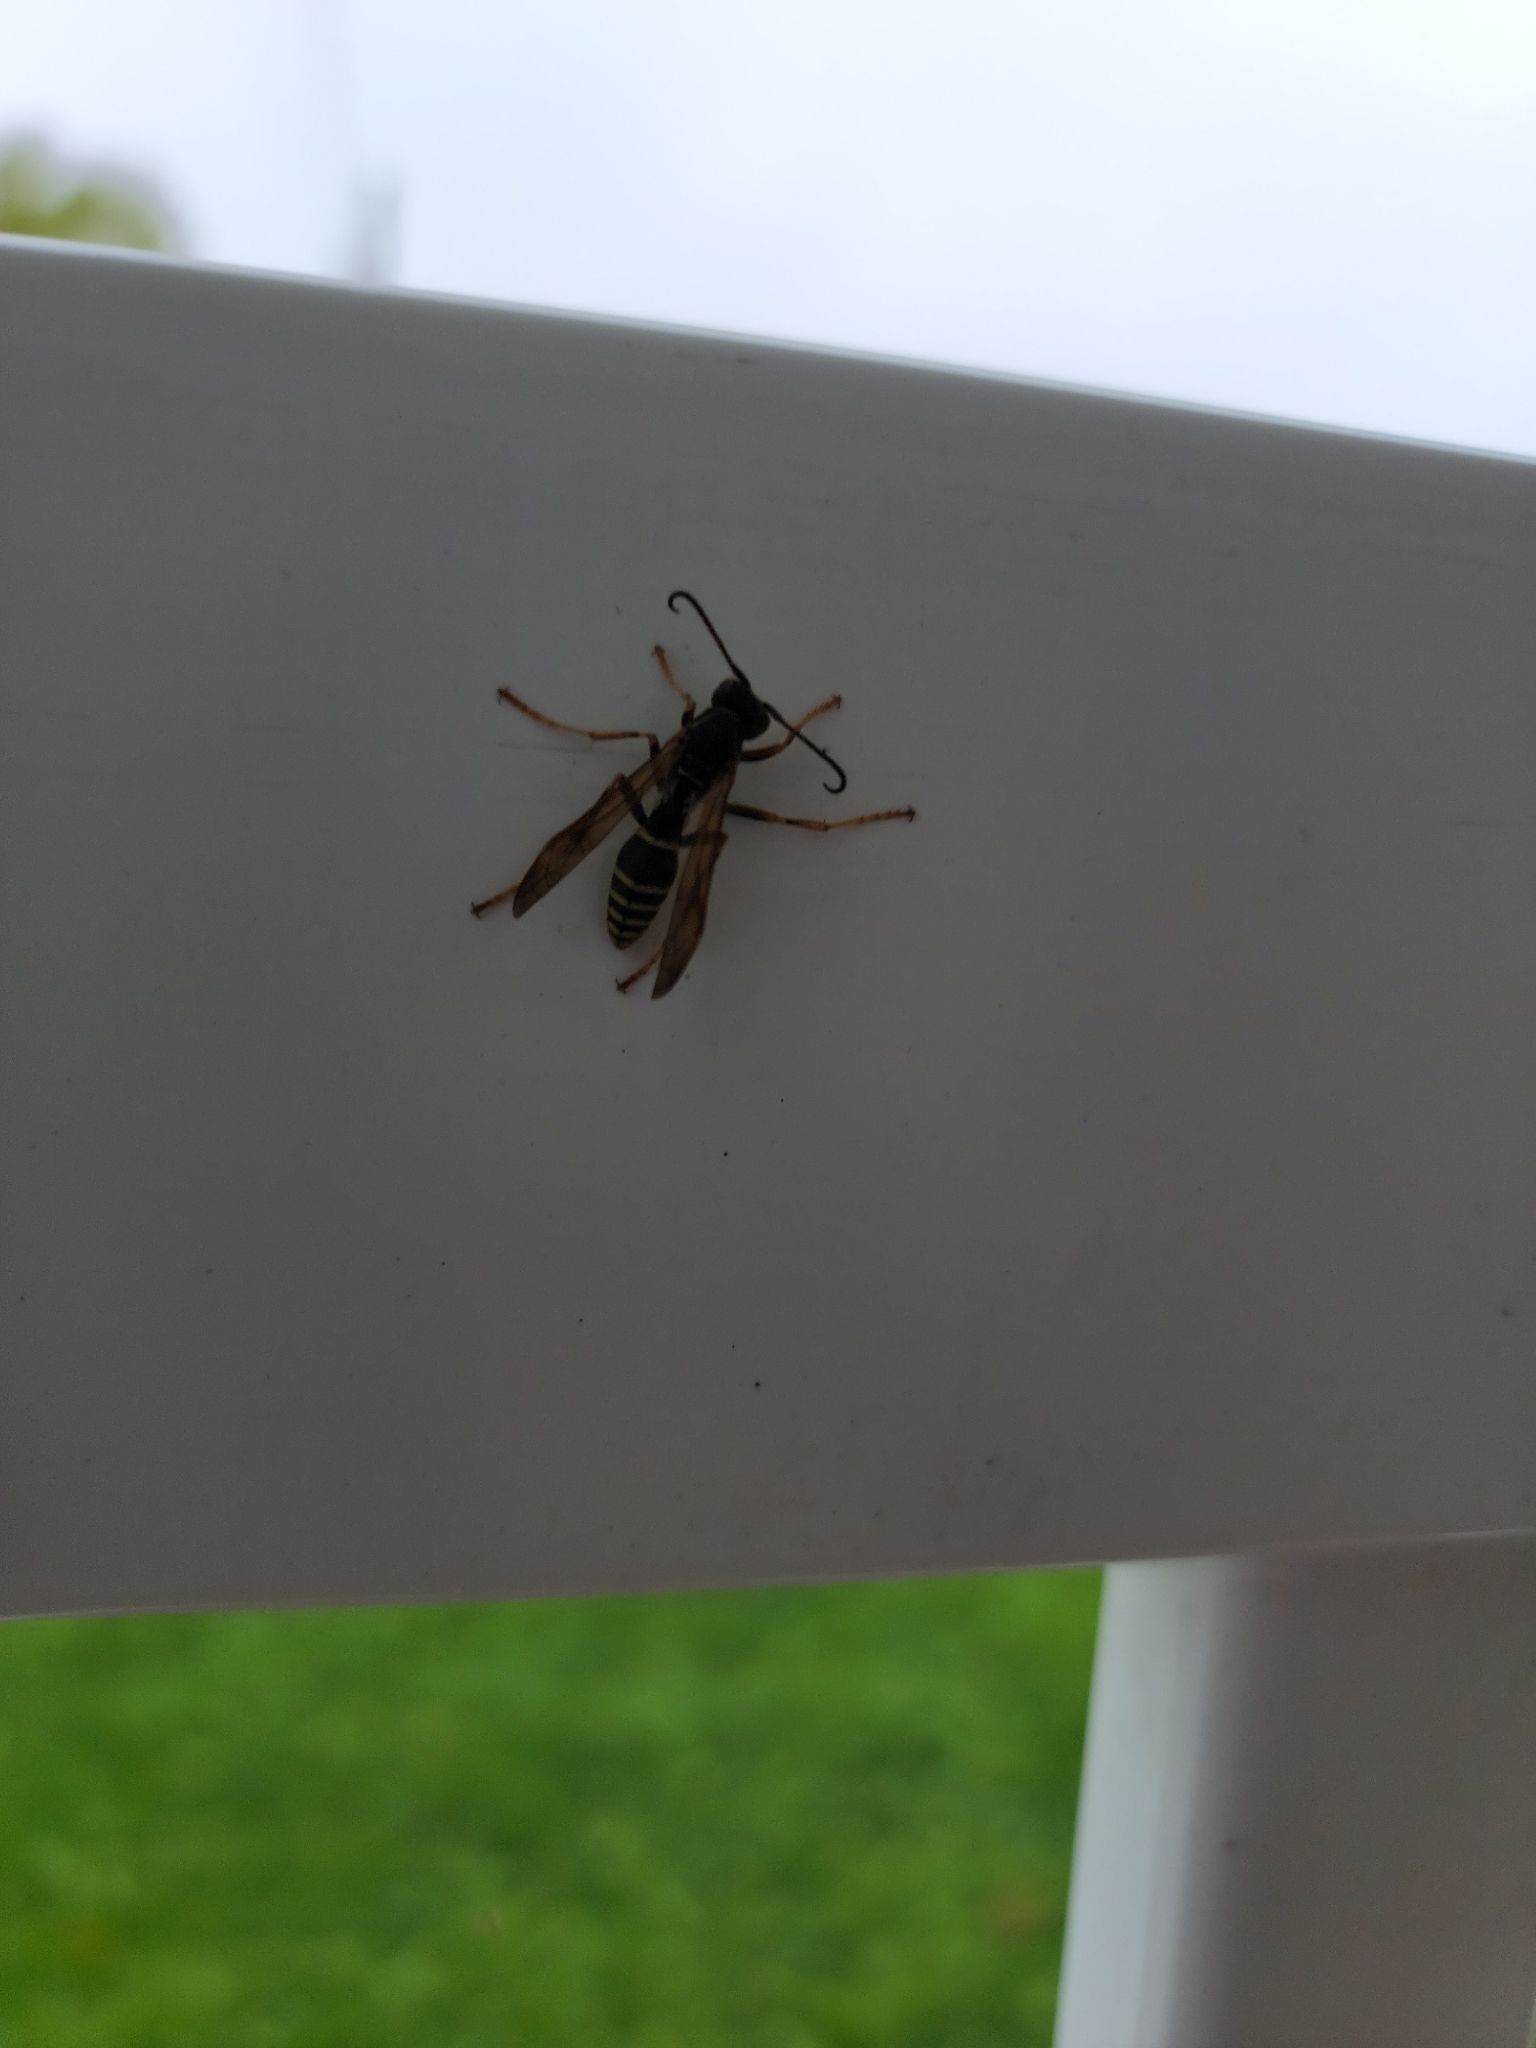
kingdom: Animalia
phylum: Arthropoda
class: Insecta
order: Hymenoptera
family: Eumenidae
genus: Polistes
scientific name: Polistes fuscatus
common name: Dark paper wasp
